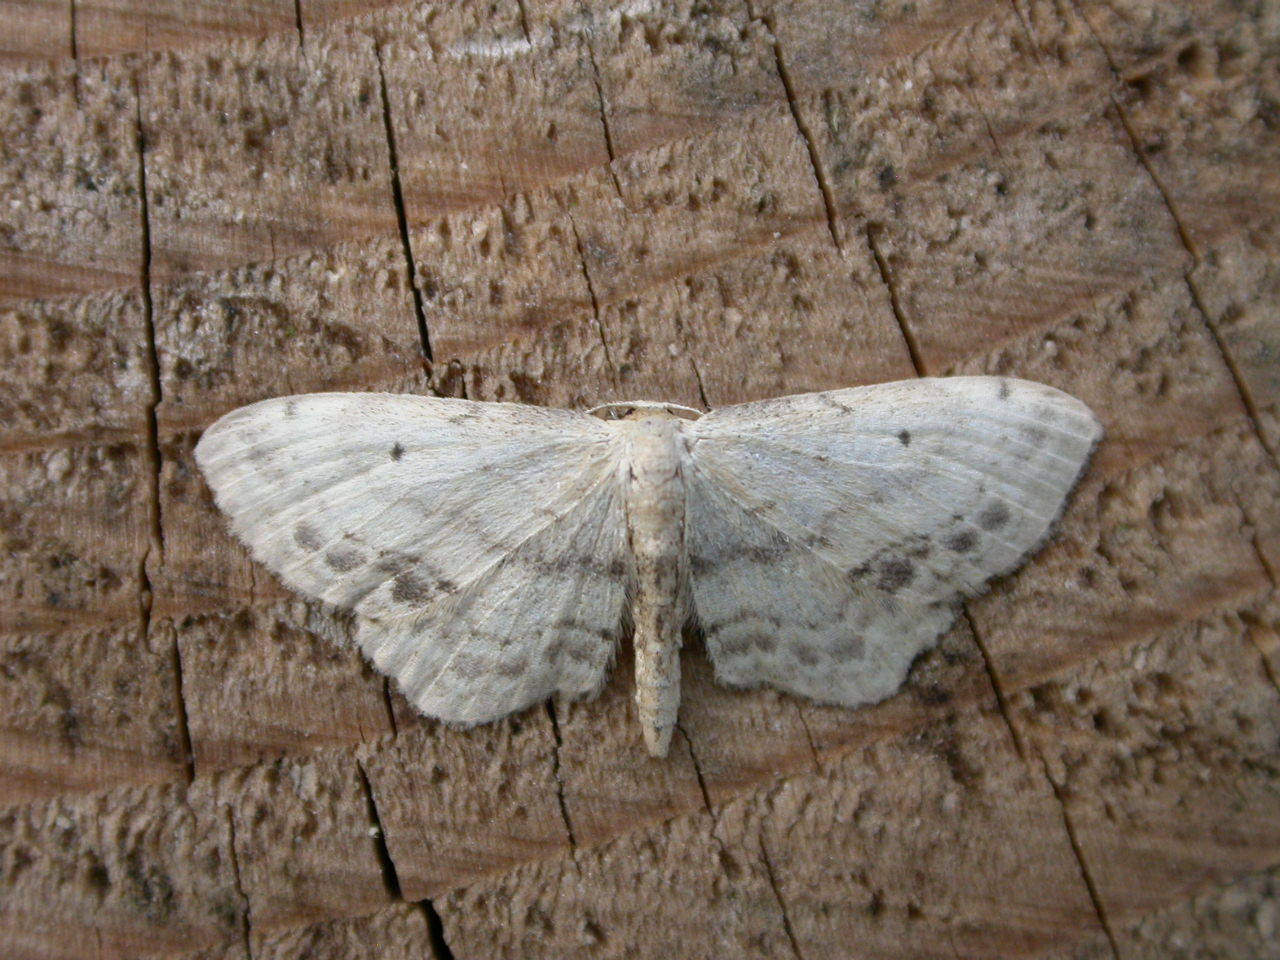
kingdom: Animalia
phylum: Arthropoda
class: Insecta
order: Lepidoptera
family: Geometridae
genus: Idaea
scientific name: Idaea dimidiata
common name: Single-dotted wave
